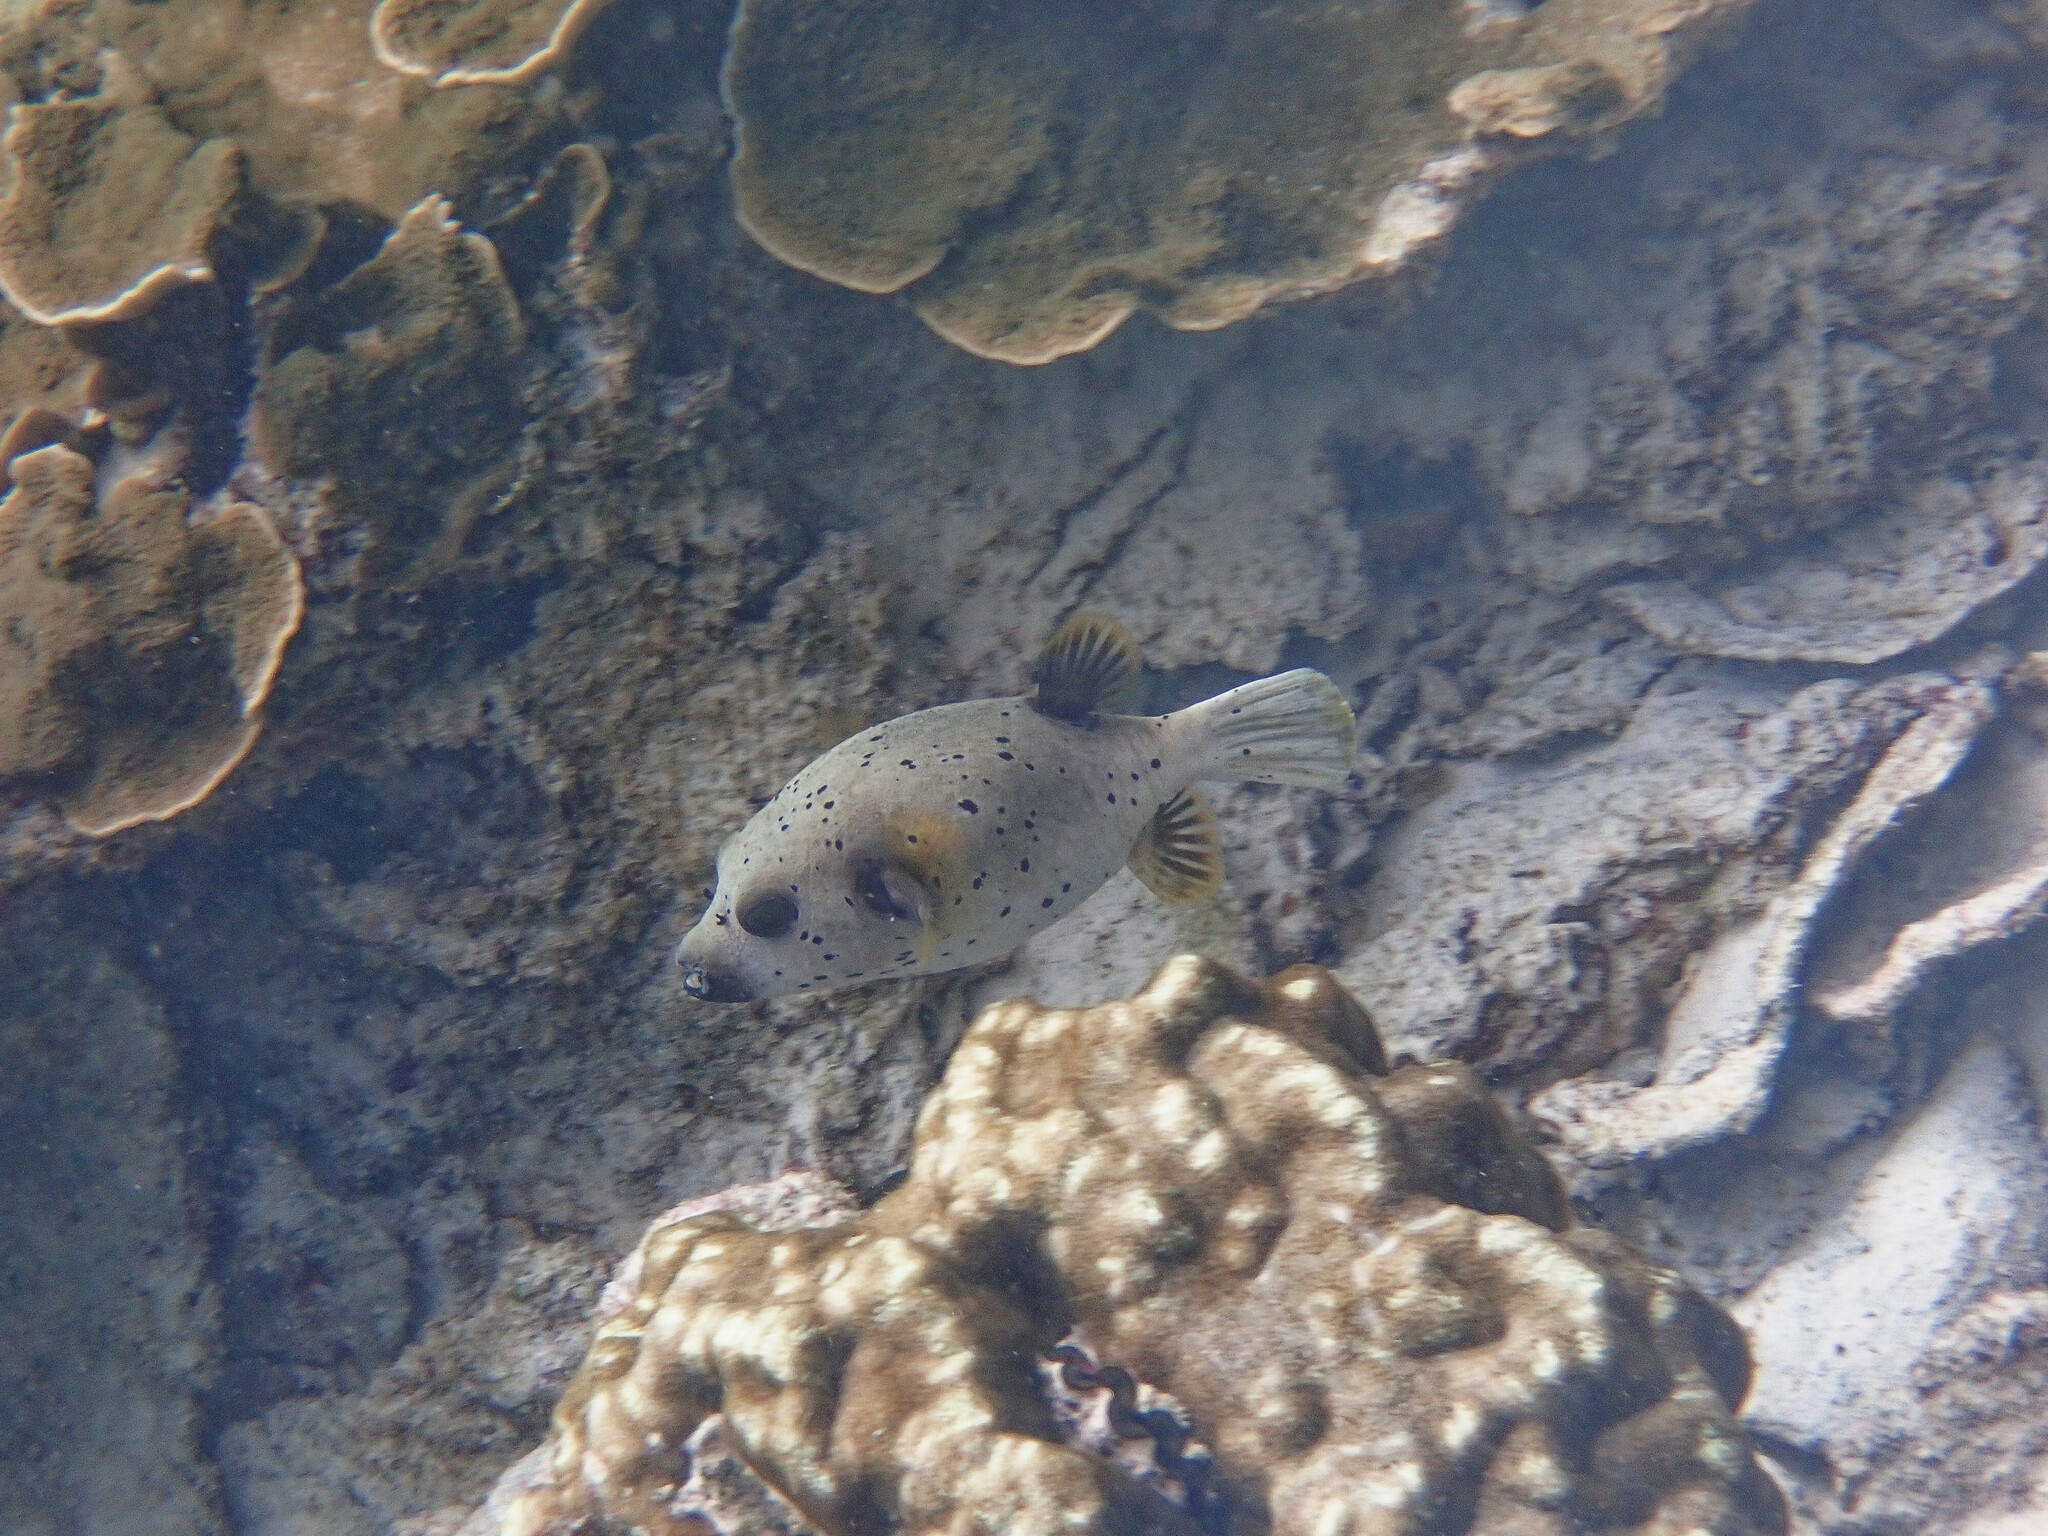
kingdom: Animalia
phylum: Chordata
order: Tetraodontiformes
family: Tetraodontidae
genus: Arothron
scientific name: Arothron nigropunctatus
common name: Black spotted blow fish
